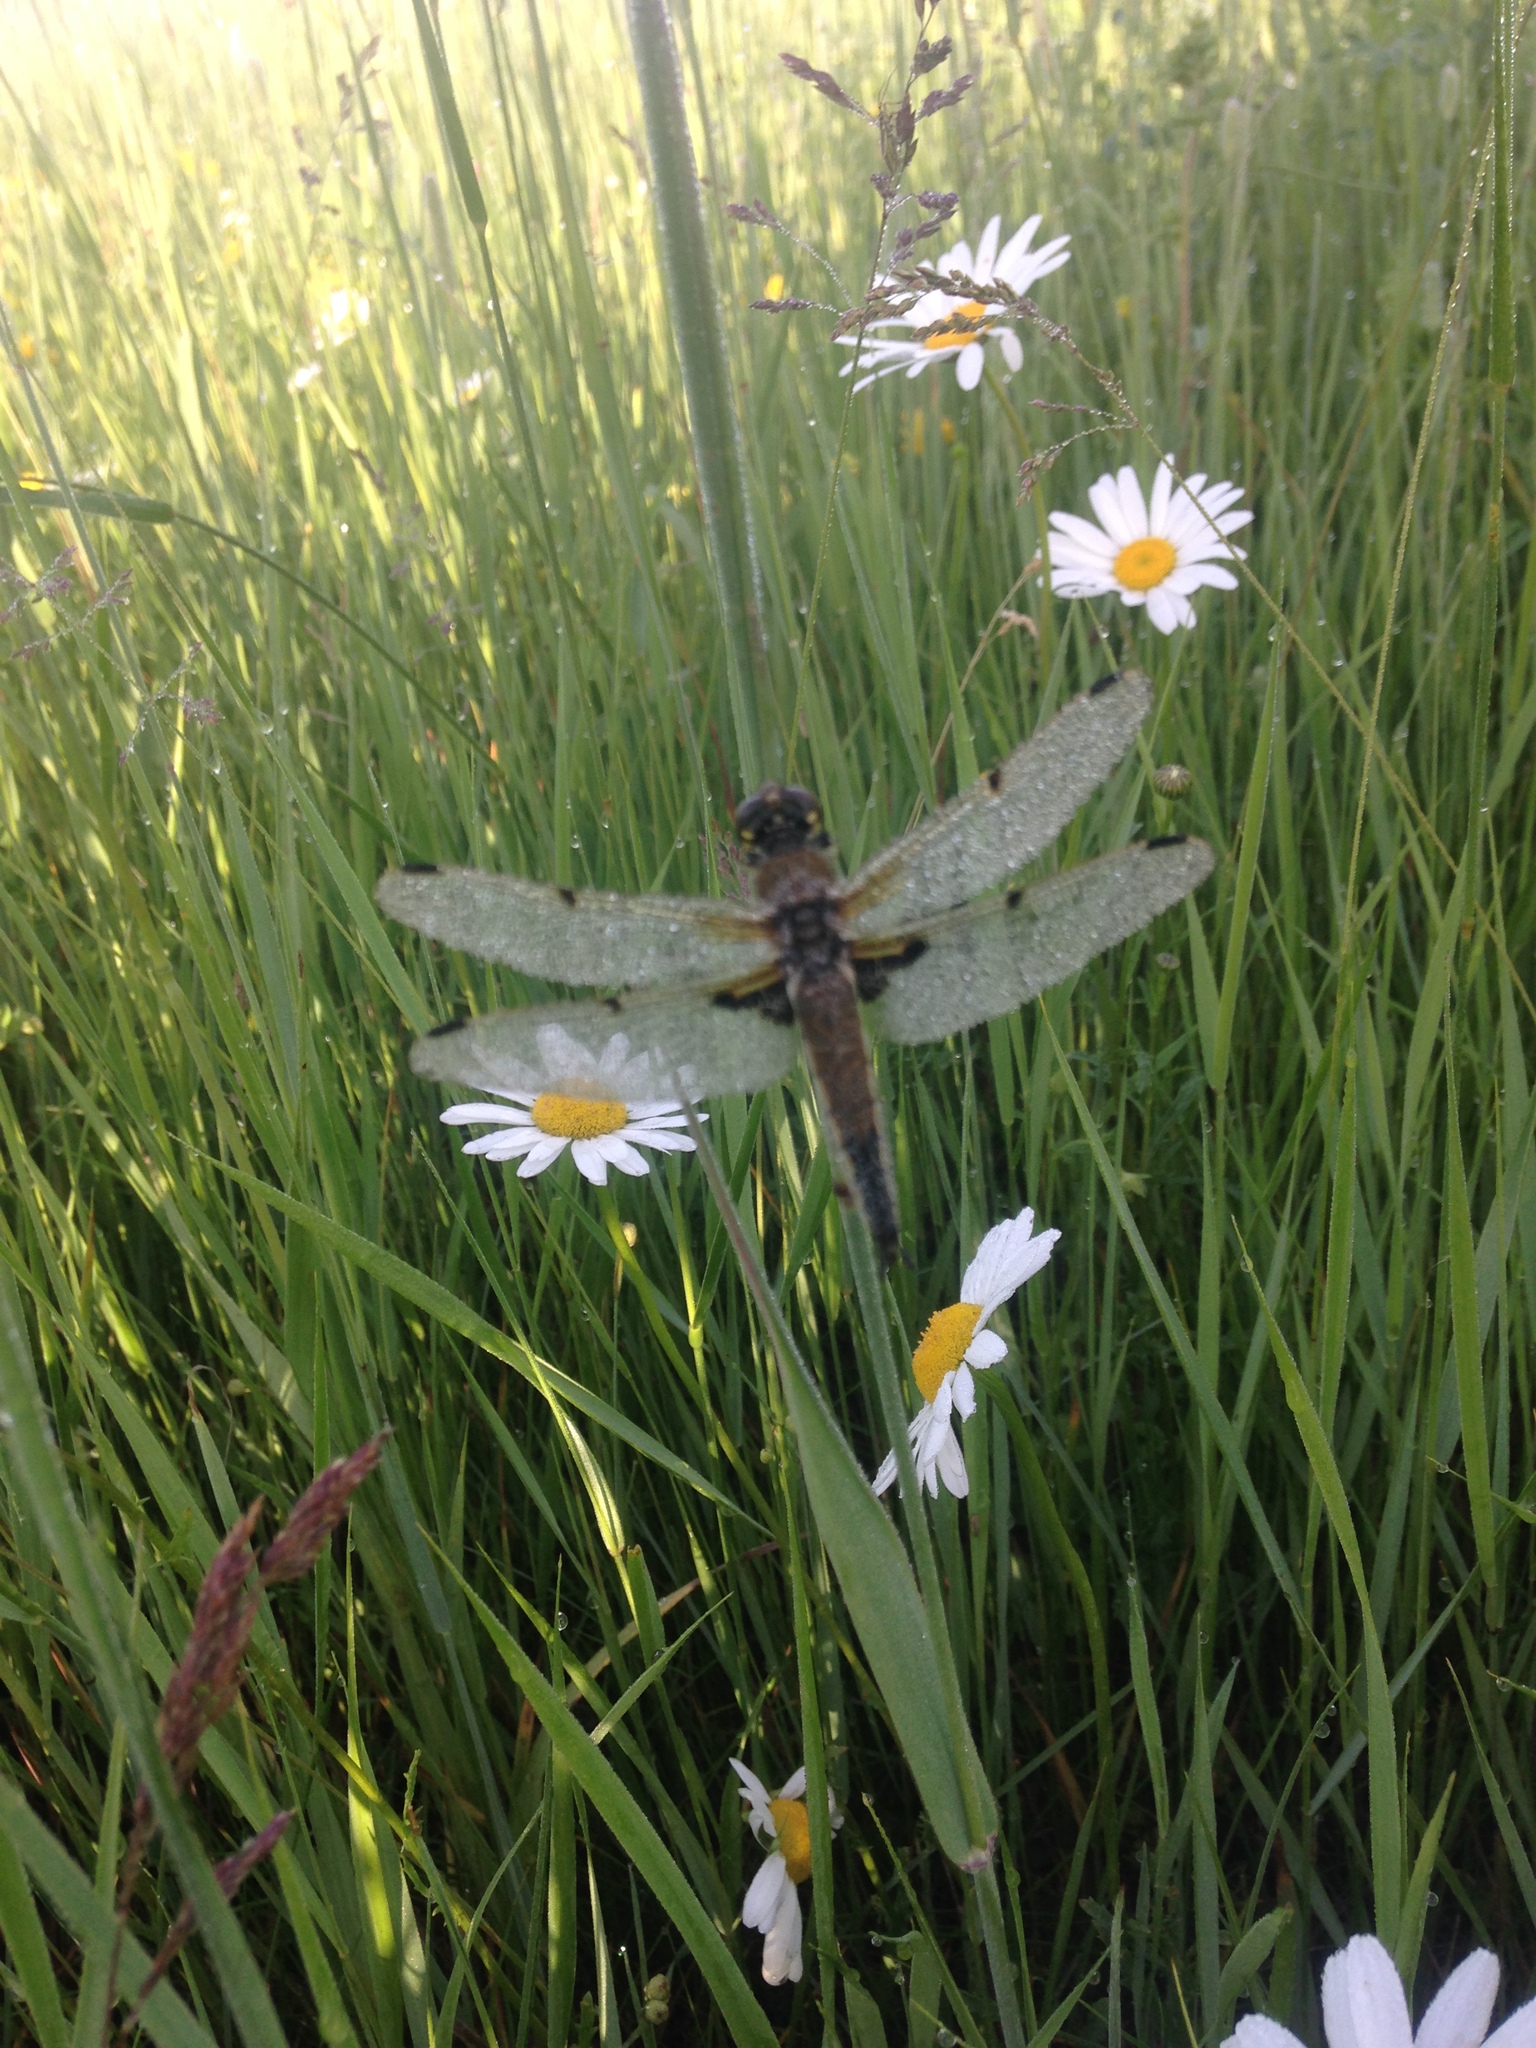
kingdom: Plantae
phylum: Tracheophyta
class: Magnoliopsida
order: Asterales
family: Asteraceae
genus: Leucanthemum
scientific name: Leucanthemum vulgare
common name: Oxeye daisy
